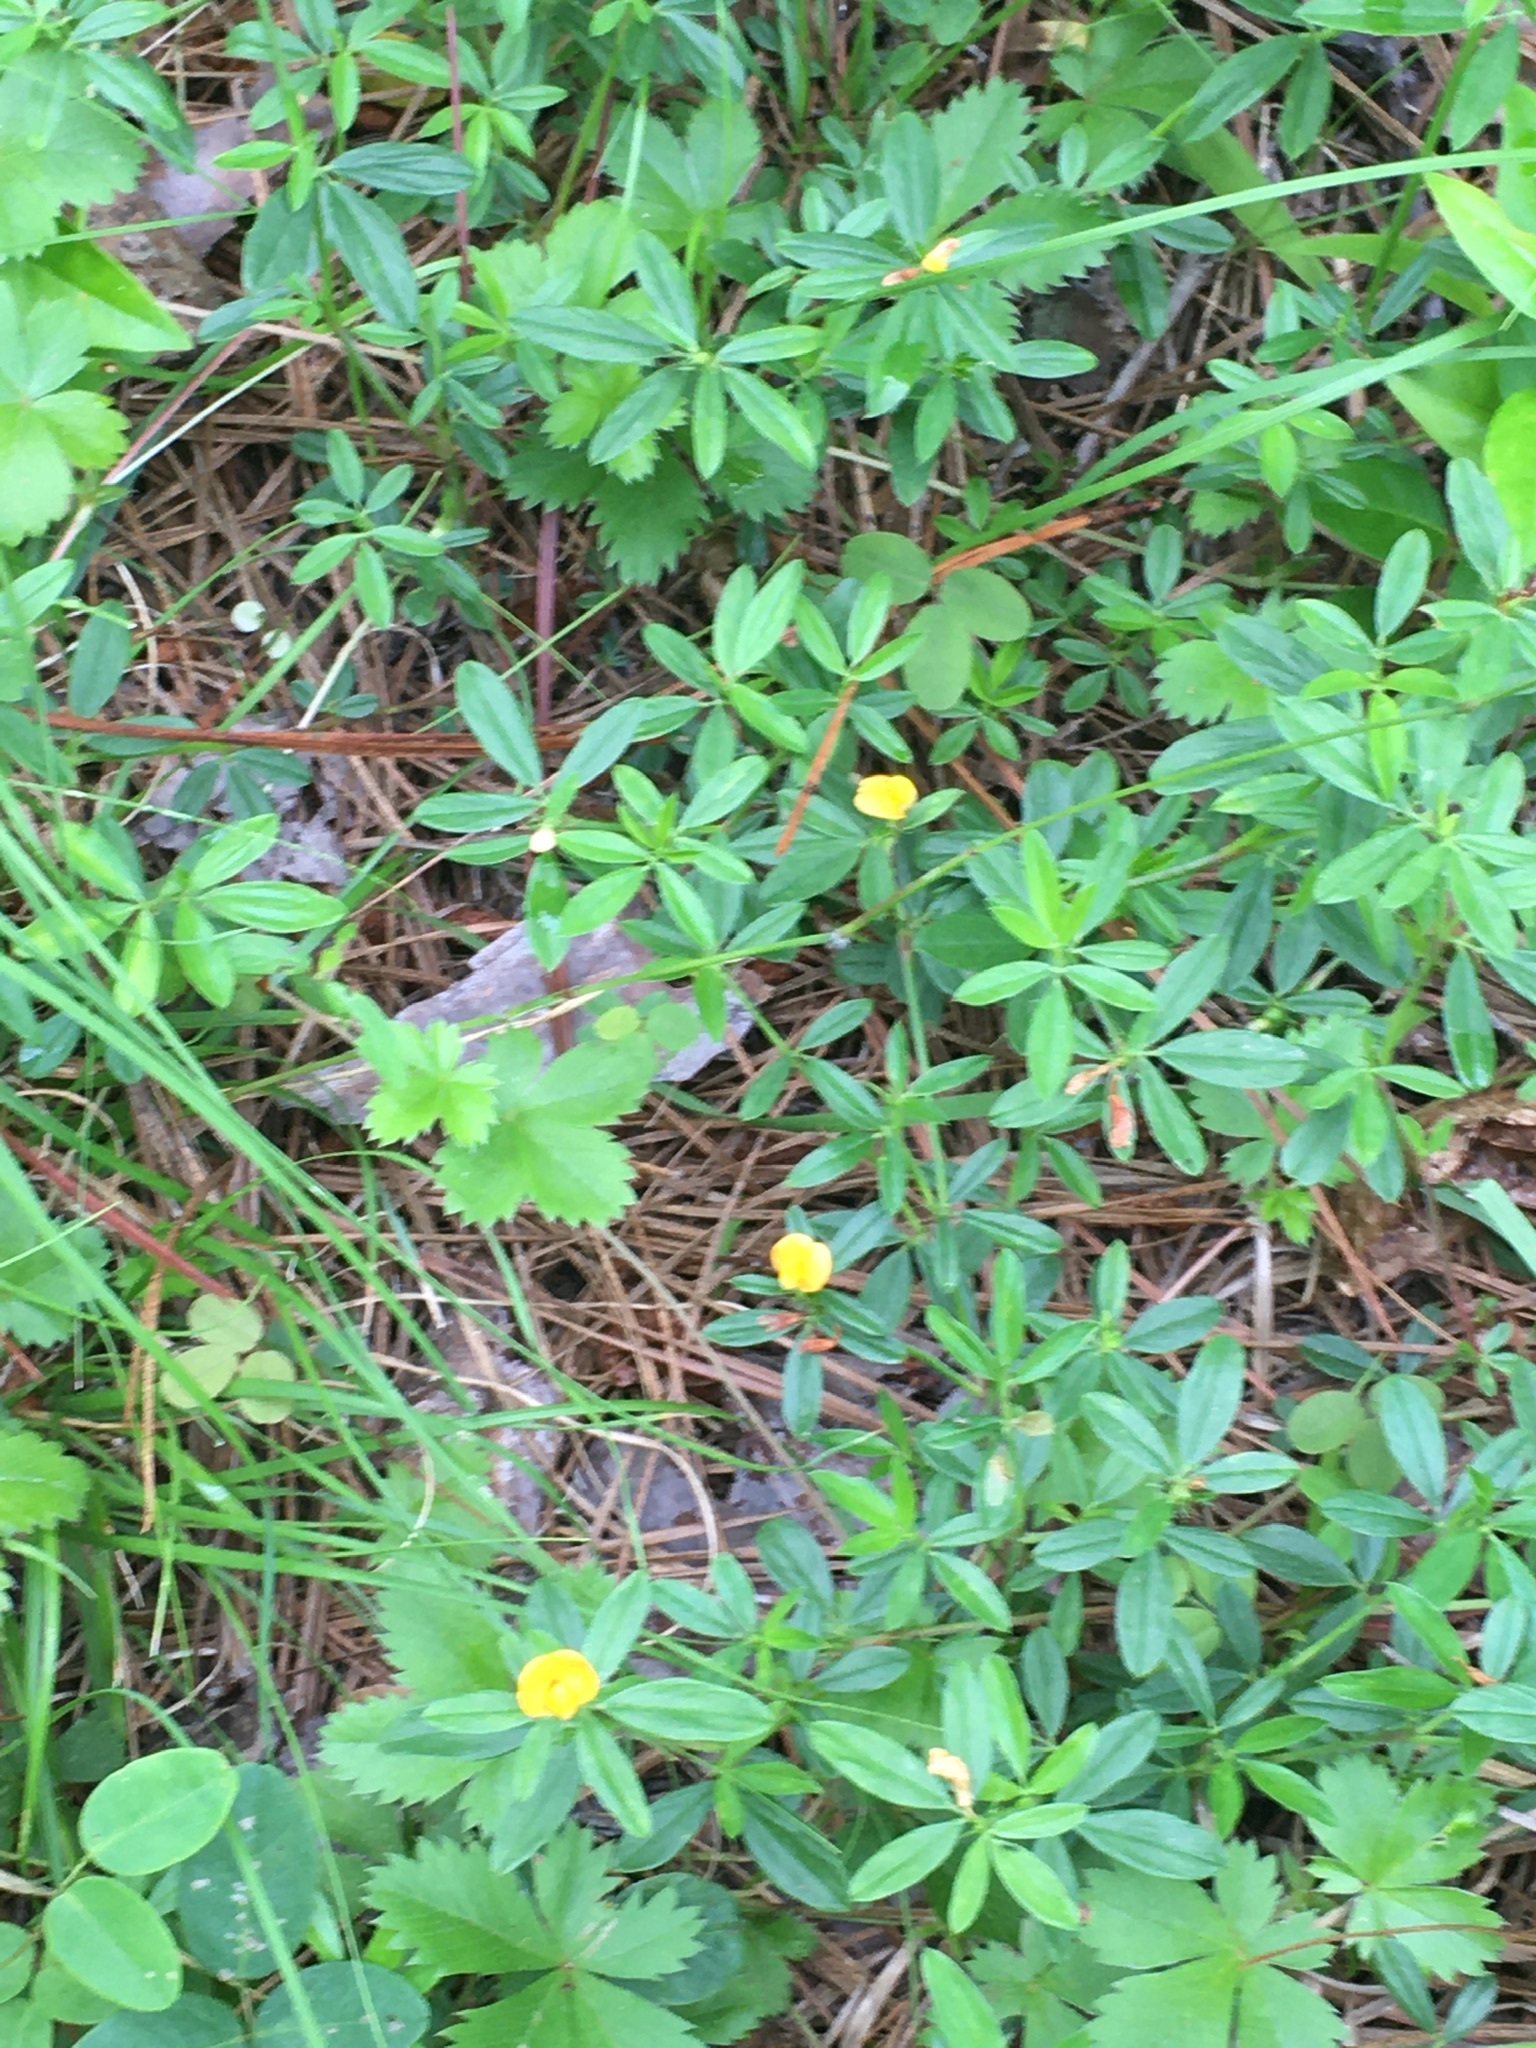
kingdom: Plantae
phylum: Tracheophyta
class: Magnoliopsida
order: Fabales
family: Fabaceae
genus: Stylosanthes
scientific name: Stylosanthes biflora
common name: Two-flower pencil-flower
